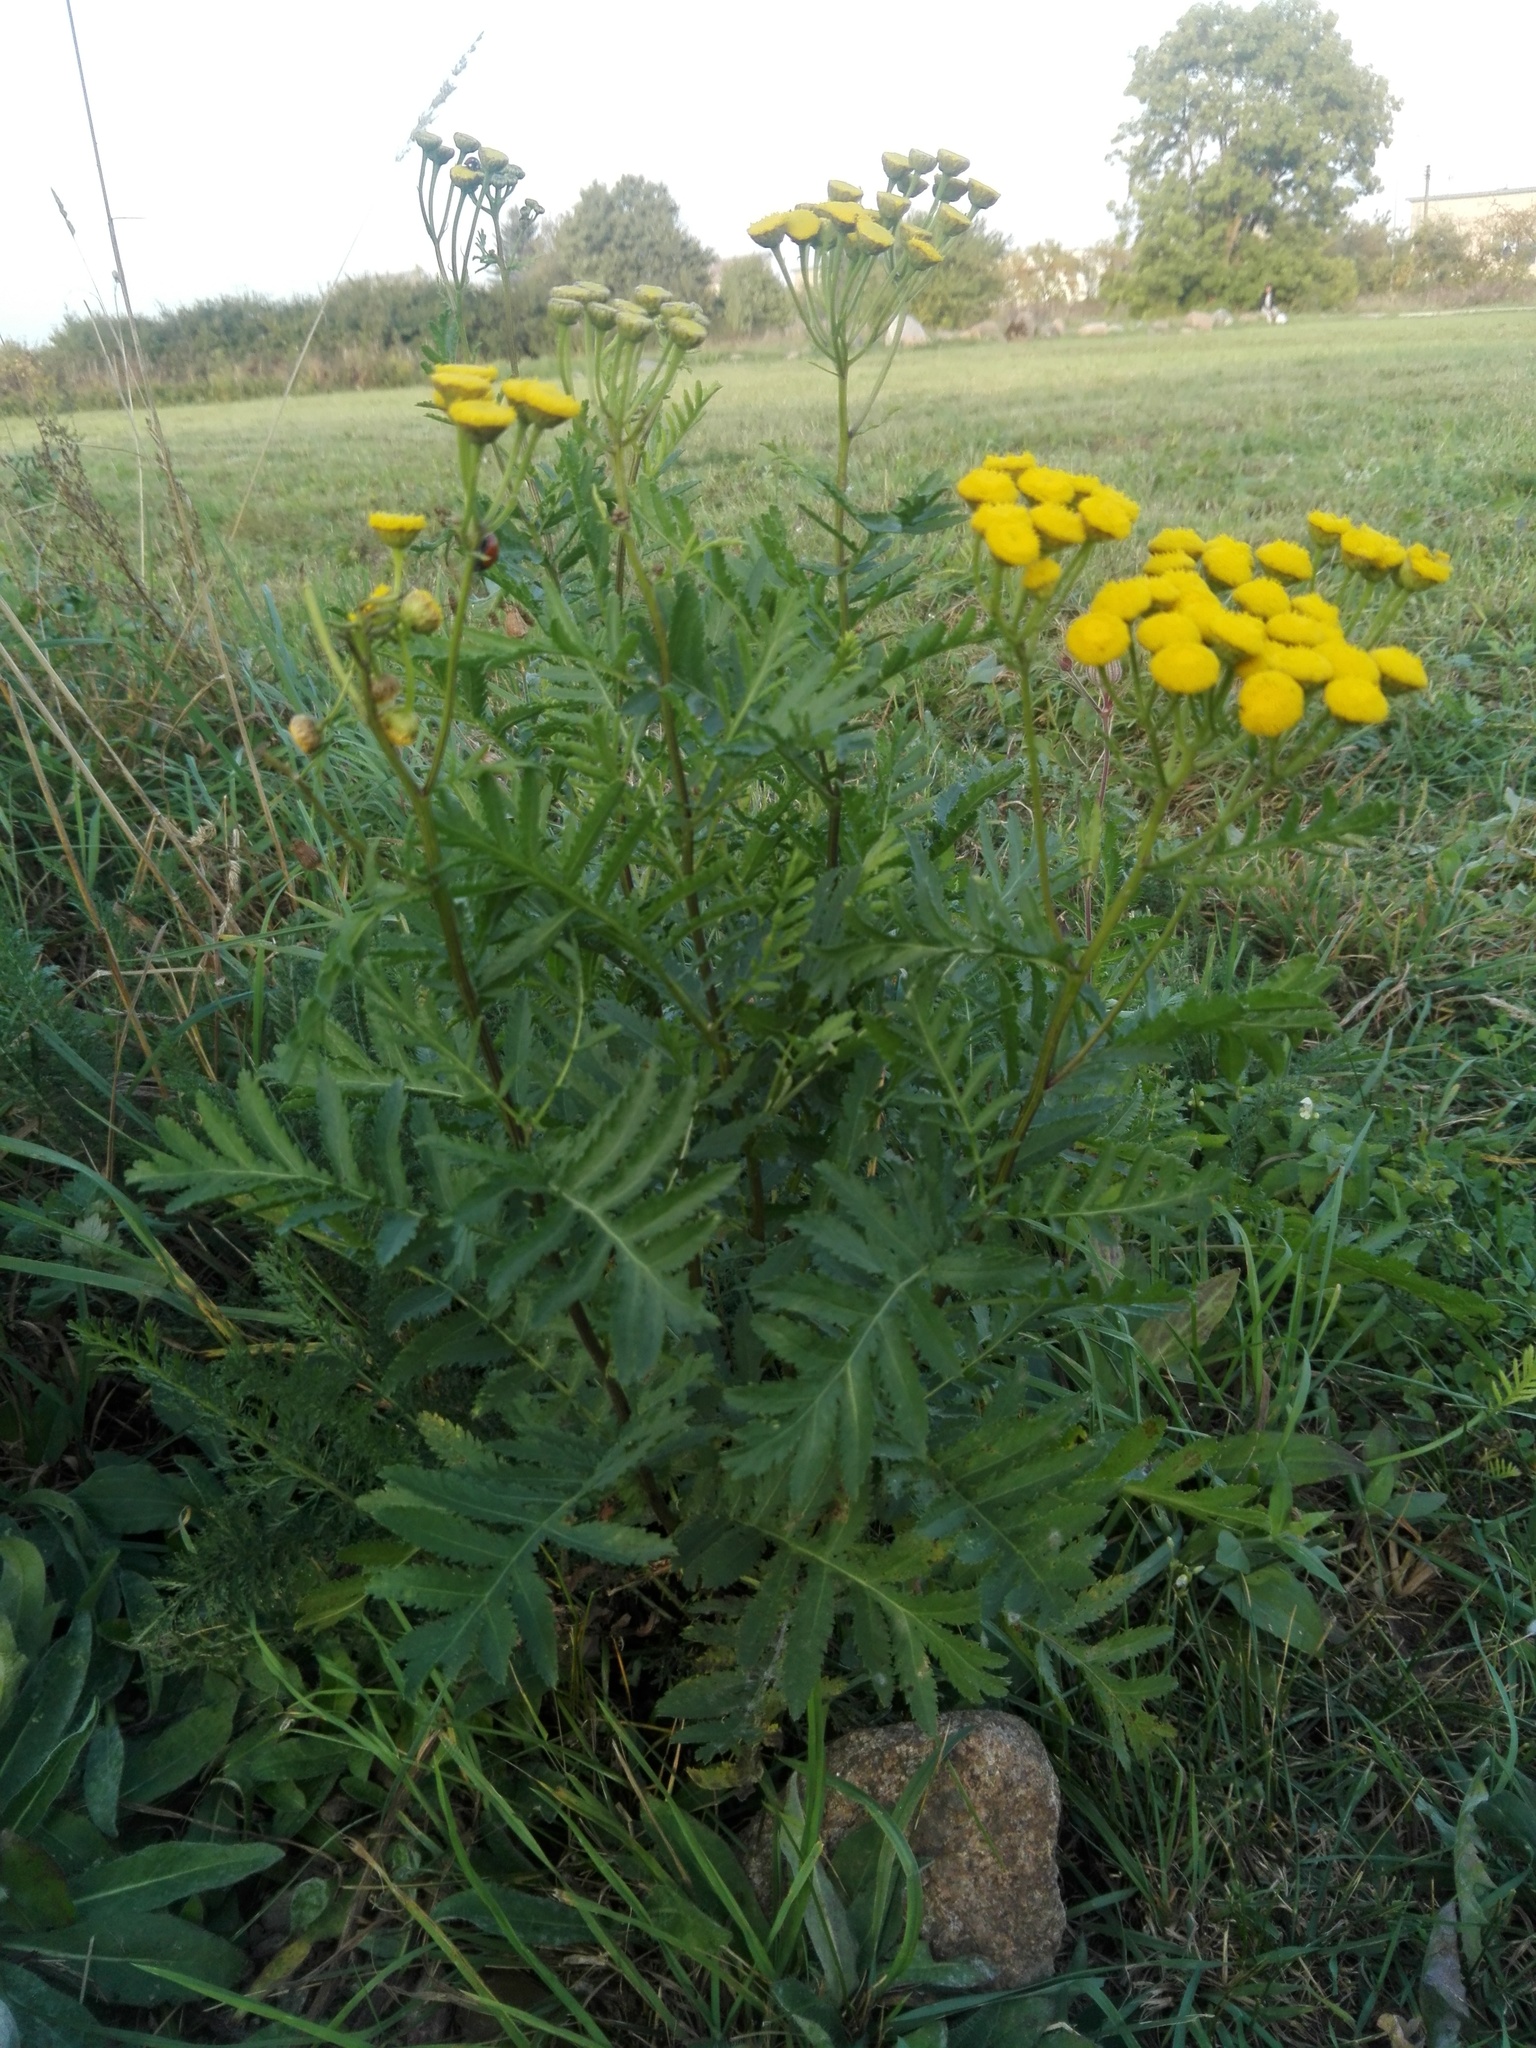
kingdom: Plantae
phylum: Tracheophyta
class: Magnoliopsida
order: Asterales
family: Asteraceae
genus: Tanacetum
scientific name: Tanacetum vulgare
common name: Common tansy
